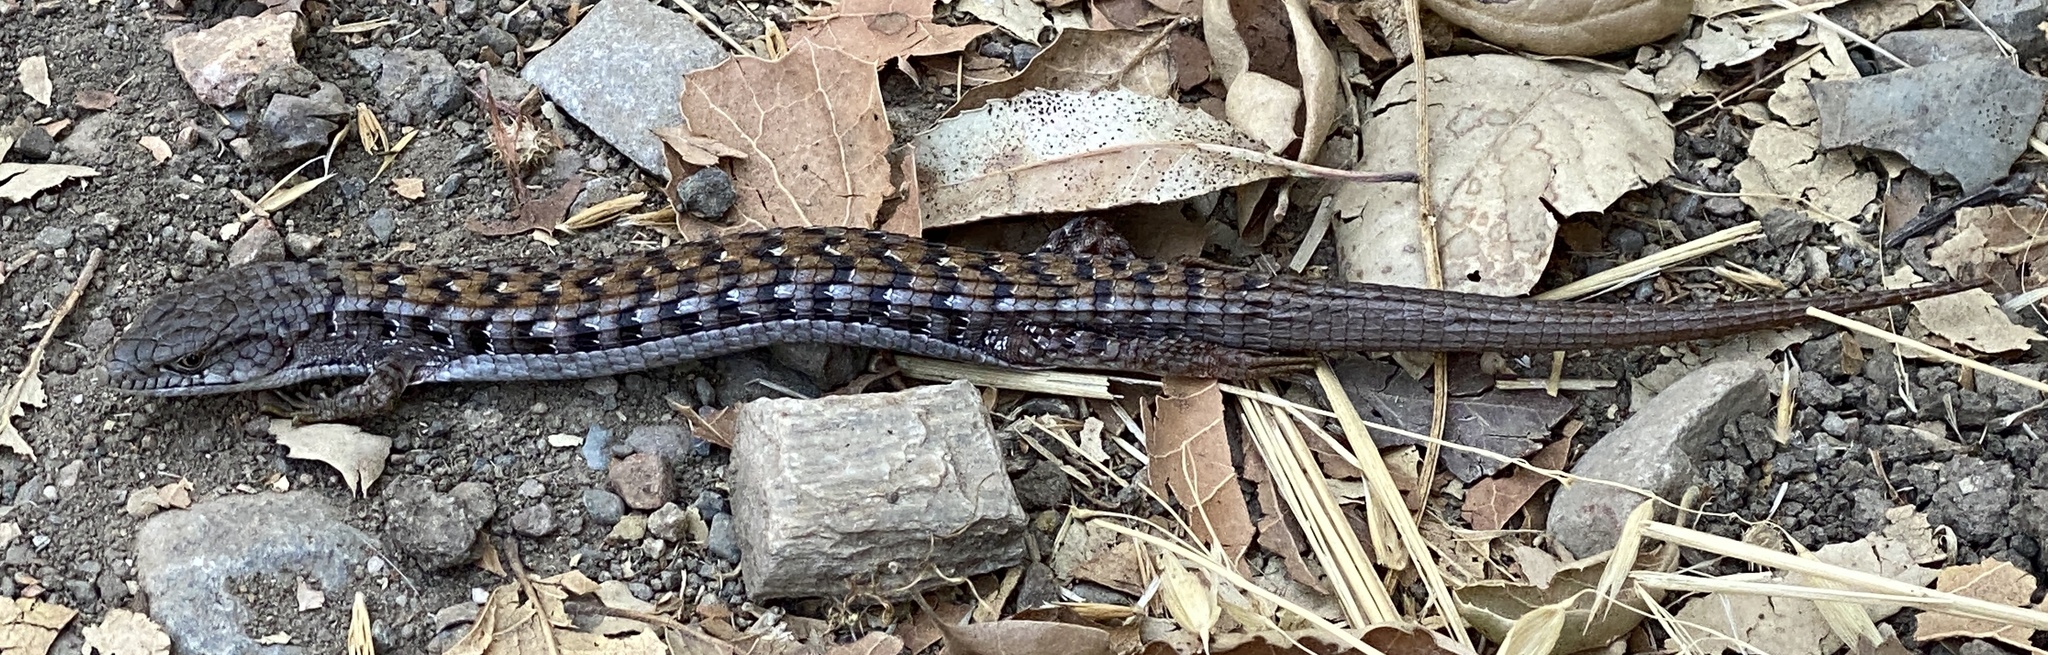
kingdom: Animalia
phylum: Chordata
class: Squamata
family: Anguidae
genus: Elgaria
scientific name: Elgaria multicarinata
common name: Southern alligator lizard
